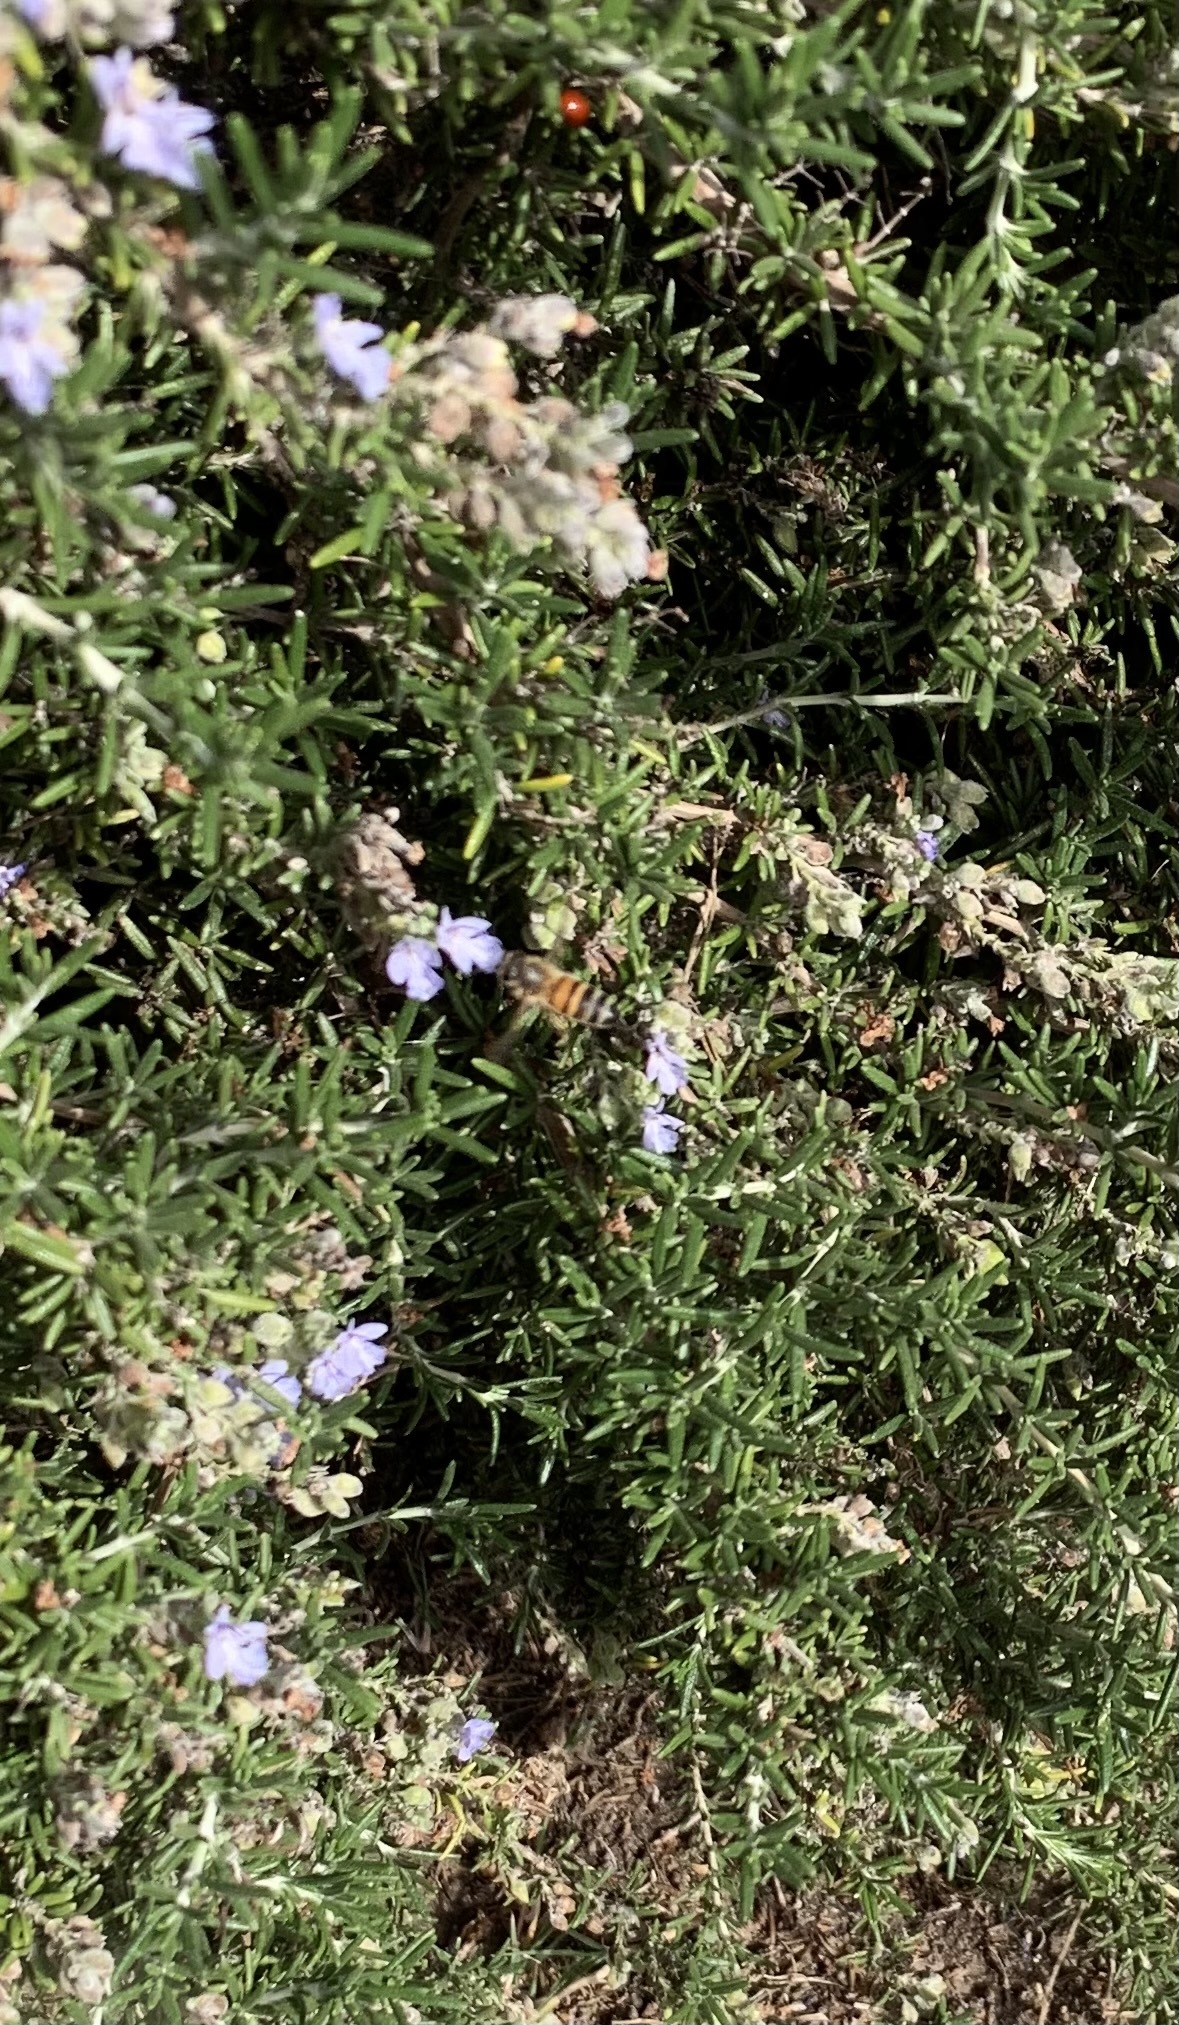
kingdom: Animalia
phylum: Arthropoda
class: Insecta
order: Hymenoptera
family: Apidae
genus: Apis
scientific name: Apis mellifera
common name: Honey bee
